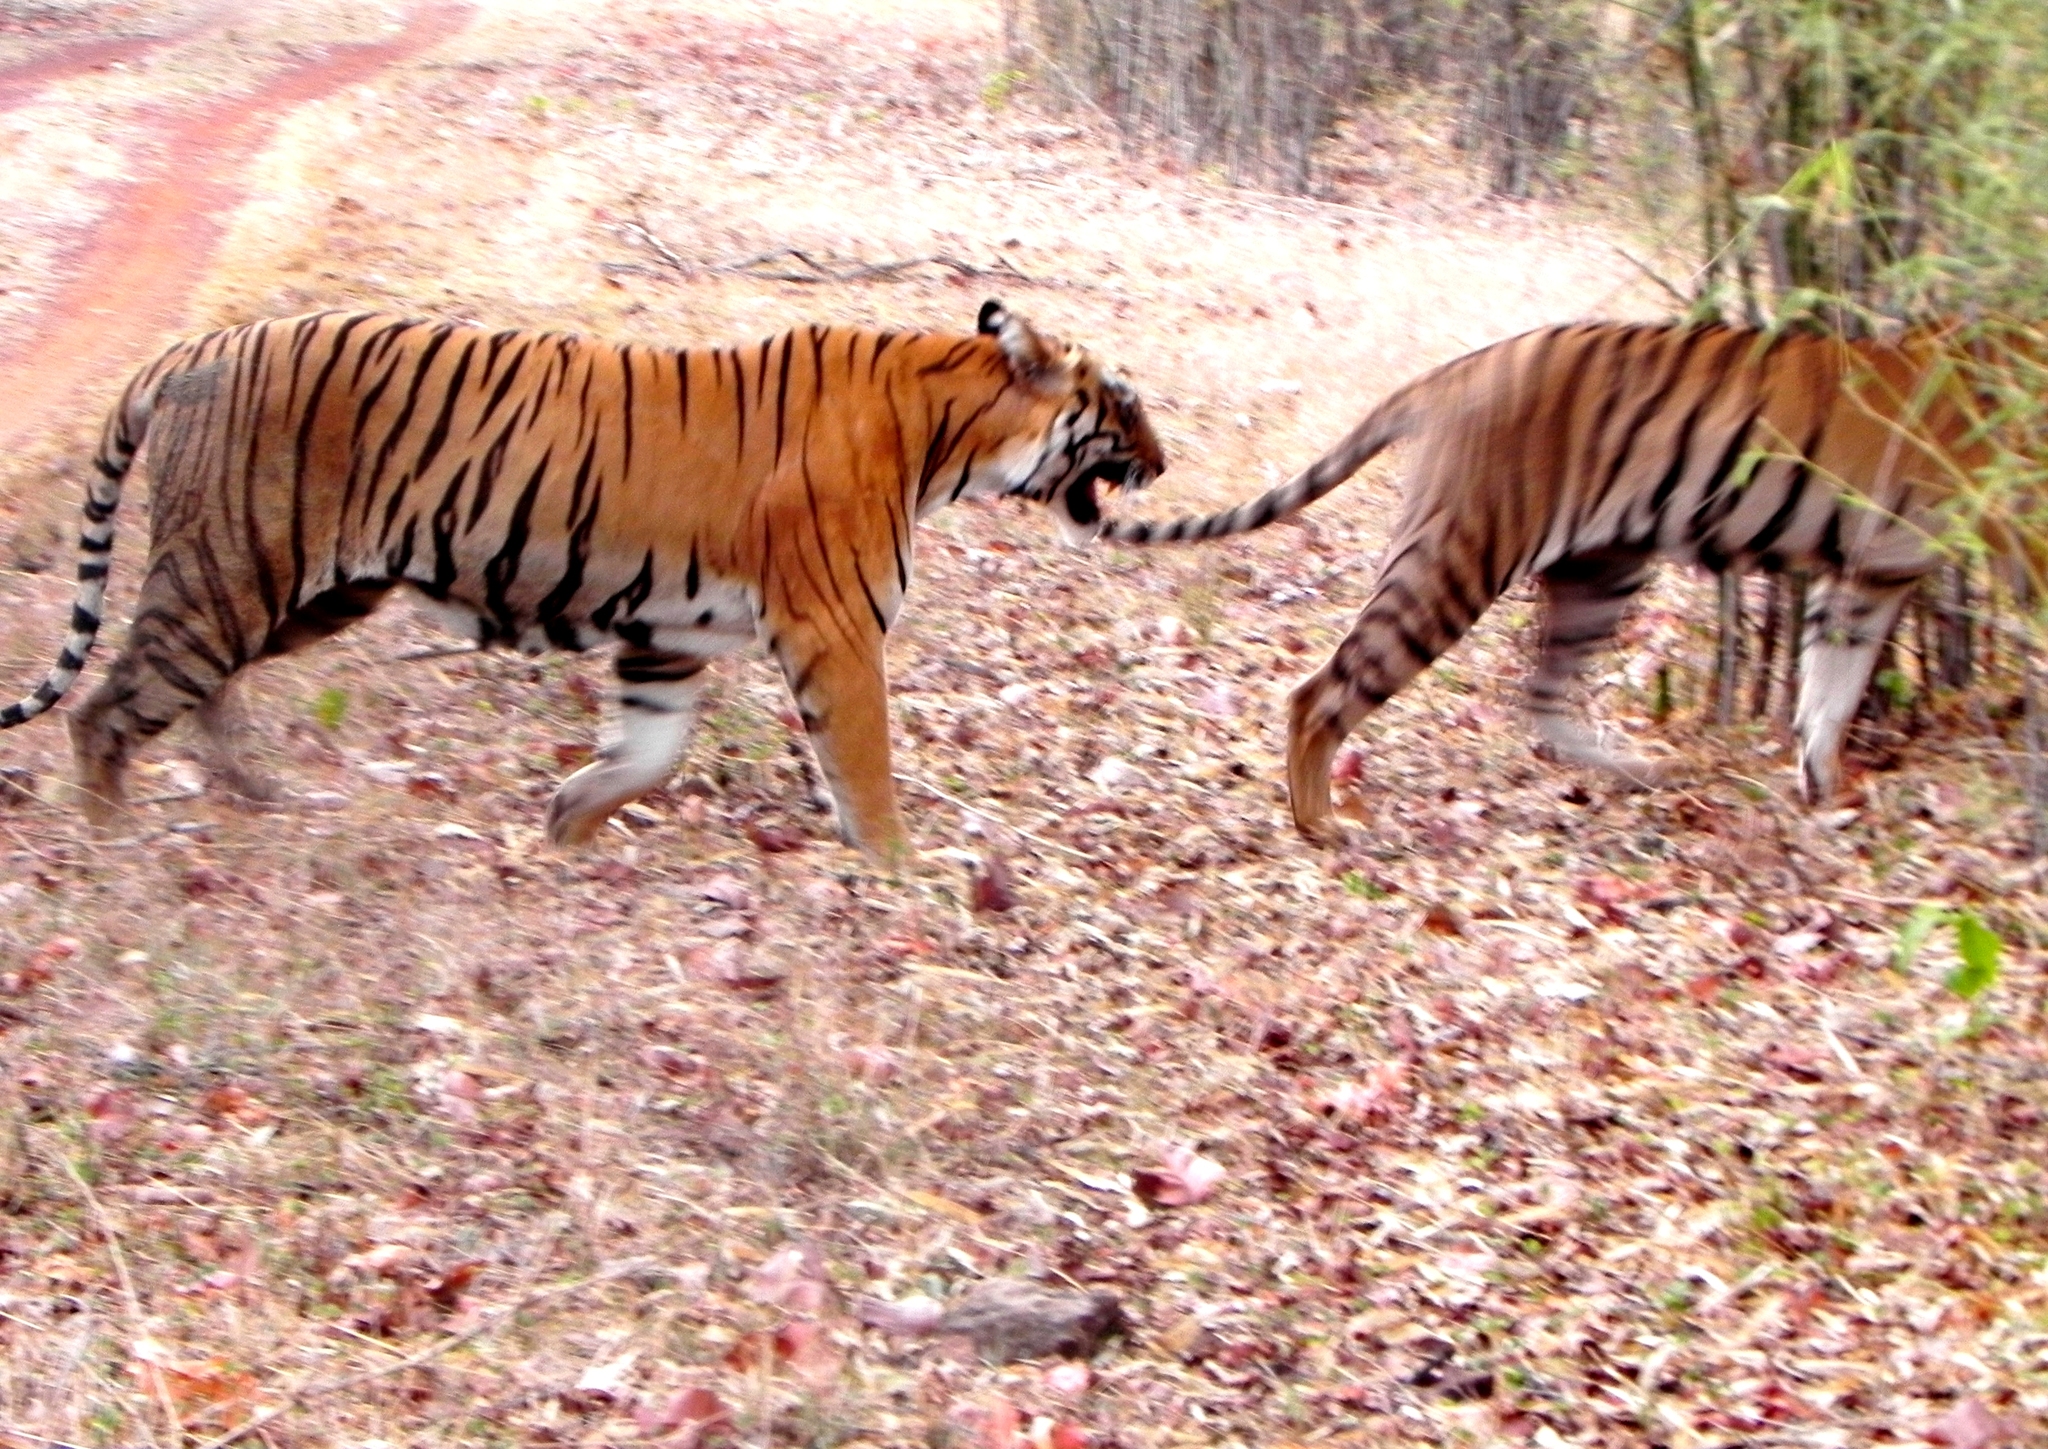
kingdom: Animalia
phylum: Chordata
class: Mammalia
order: Carnivora
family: Felidae
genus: Panthera
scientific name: Panthera tigris
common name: Tiger
